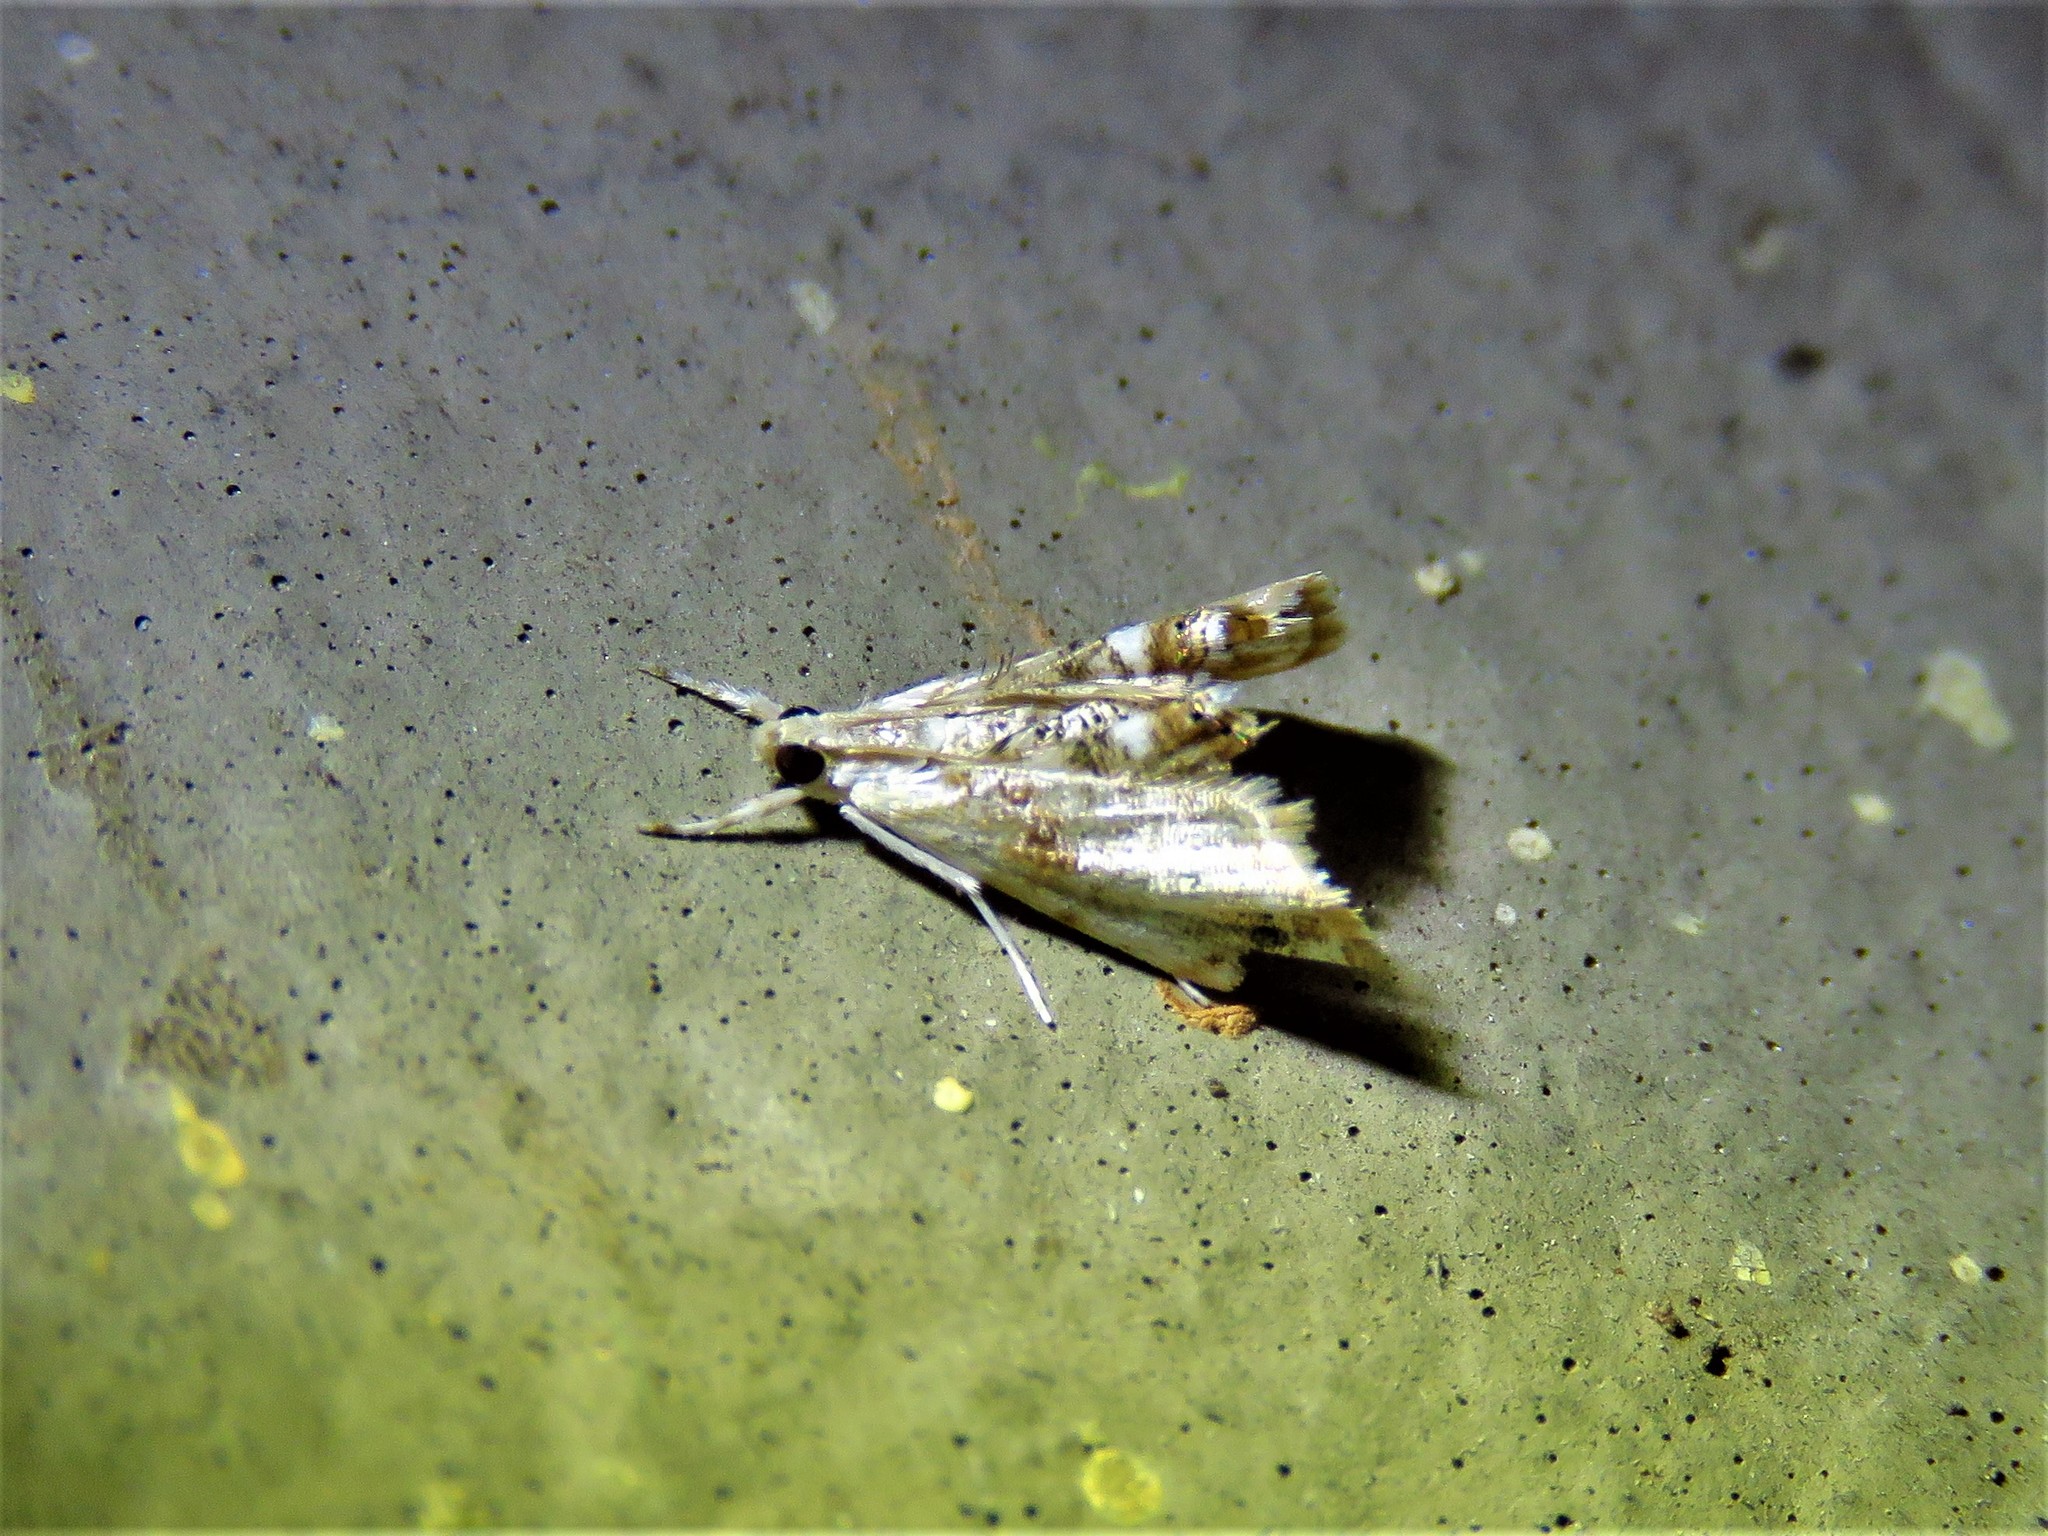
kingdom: Animalia
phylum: Arthropoda
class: Insecta
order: Lepidoptera
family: Crambidae
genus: Dicymolomia
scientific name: Dicymolomia julianalis
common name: Julia's dicymolomia moth
